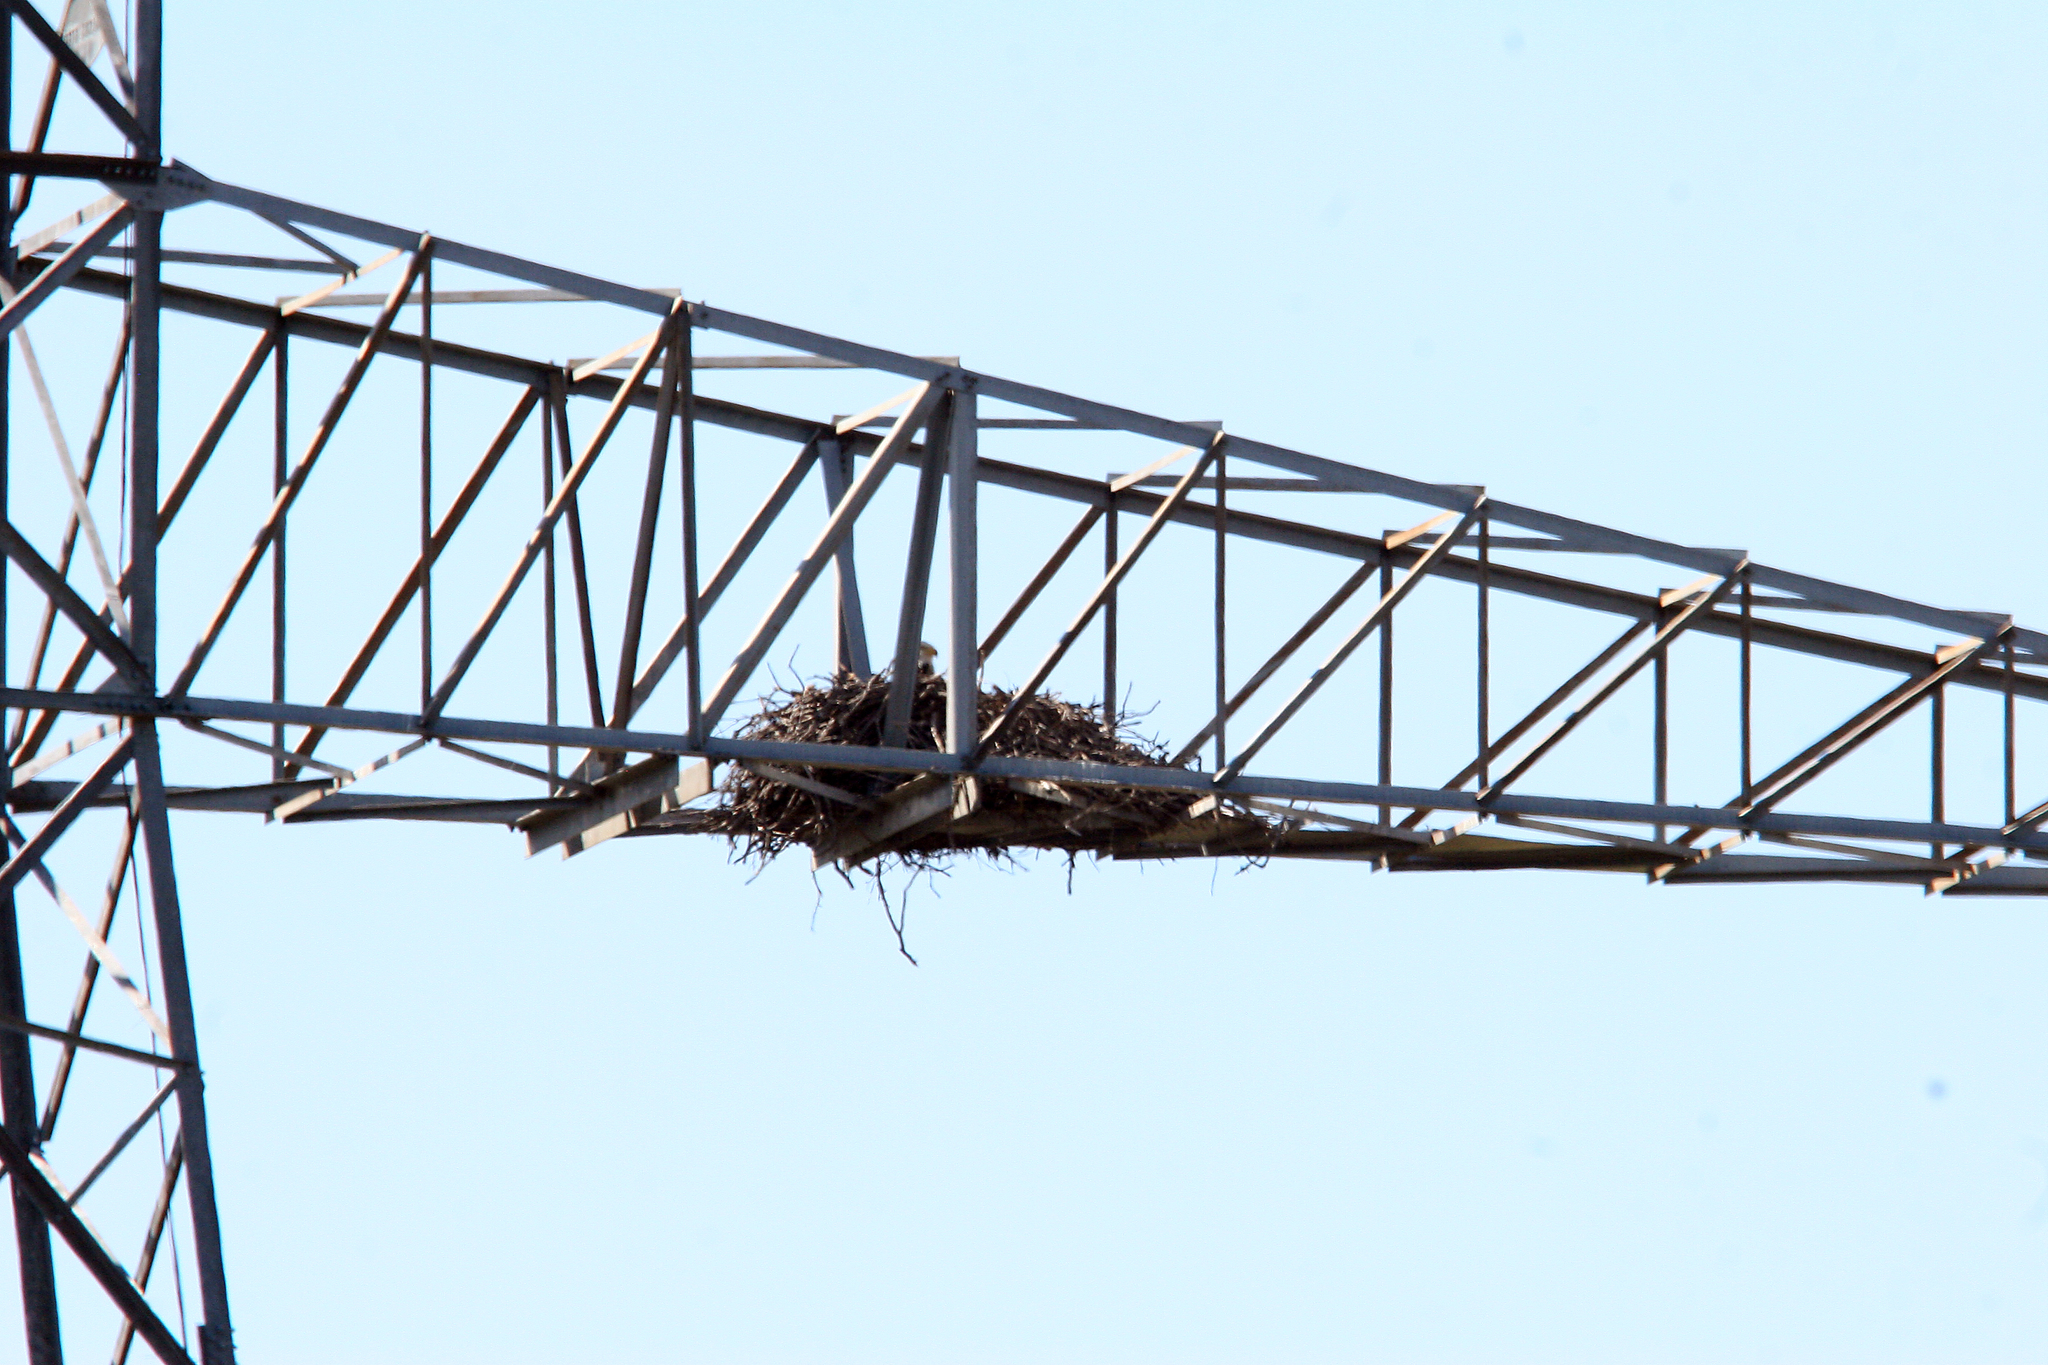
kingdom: Animalia
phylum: Chordata
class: Aves
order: Accipitriformes
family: Accipitridae
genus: Haliaeetus
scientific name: Haliaeetus leucocephalus
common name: Bald eagle
